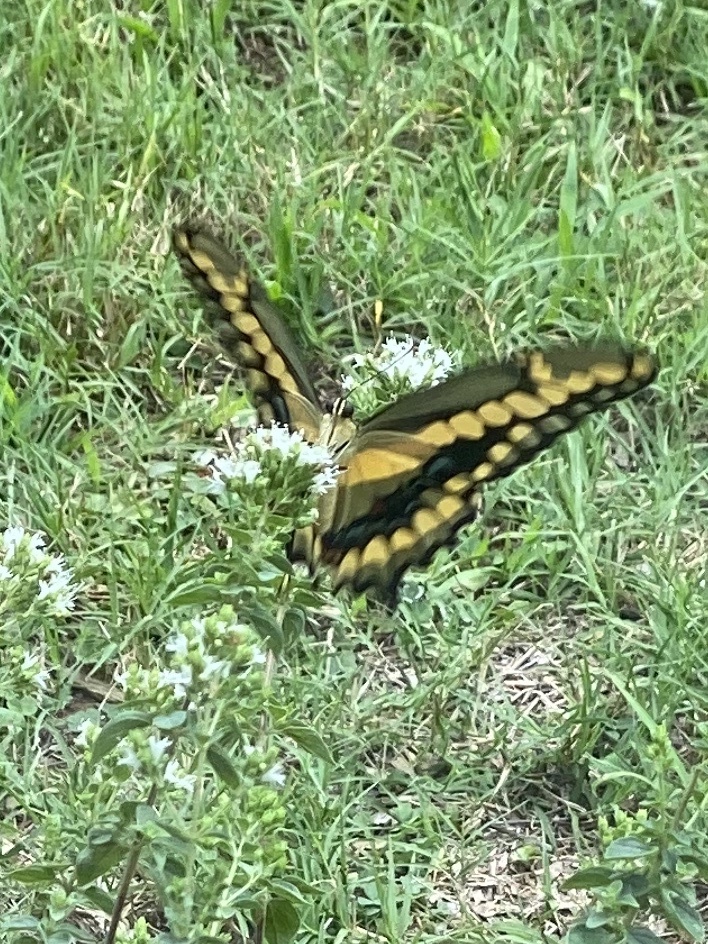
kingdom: Animalia
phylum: Arthropoda
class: Insecta
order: Lepidoptera
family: Papilionidae
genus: Papilio
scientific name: Papilio cresphontes
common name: Giant swallowtail
